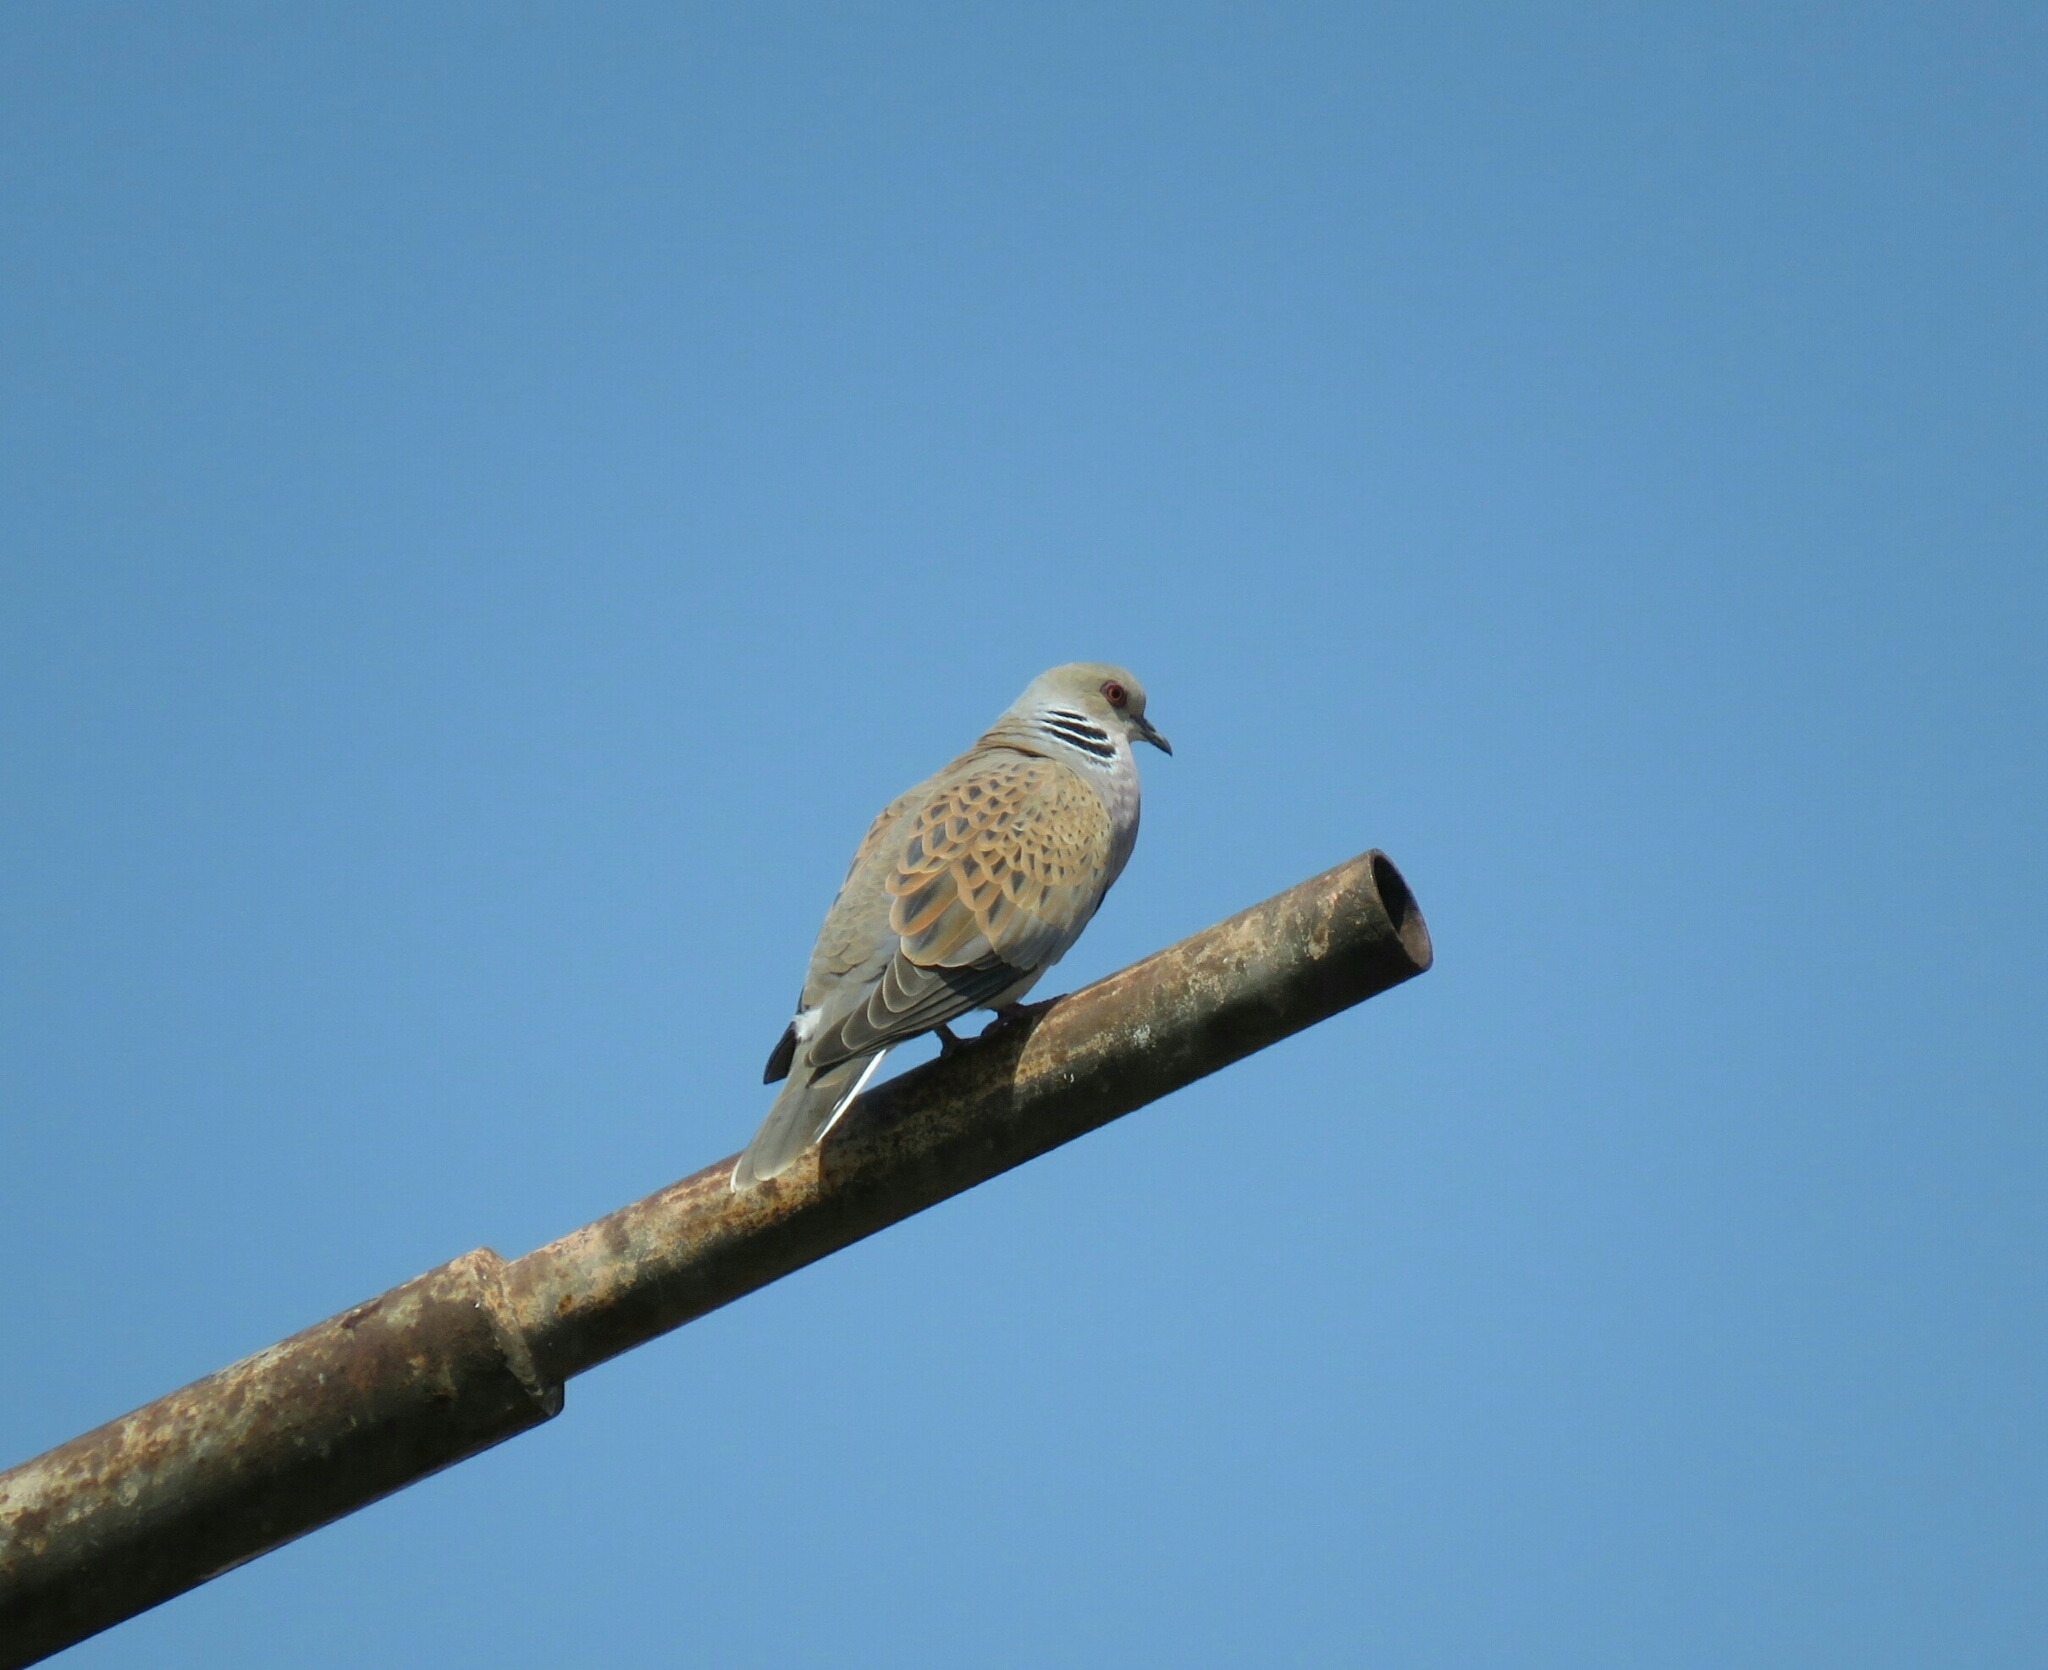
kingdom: Animalia
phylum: Chordata
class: Aves
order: Columbiformes
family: Columbidae
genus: Streptopelia
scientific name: Streptopelia turtur
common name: European turtle dove
